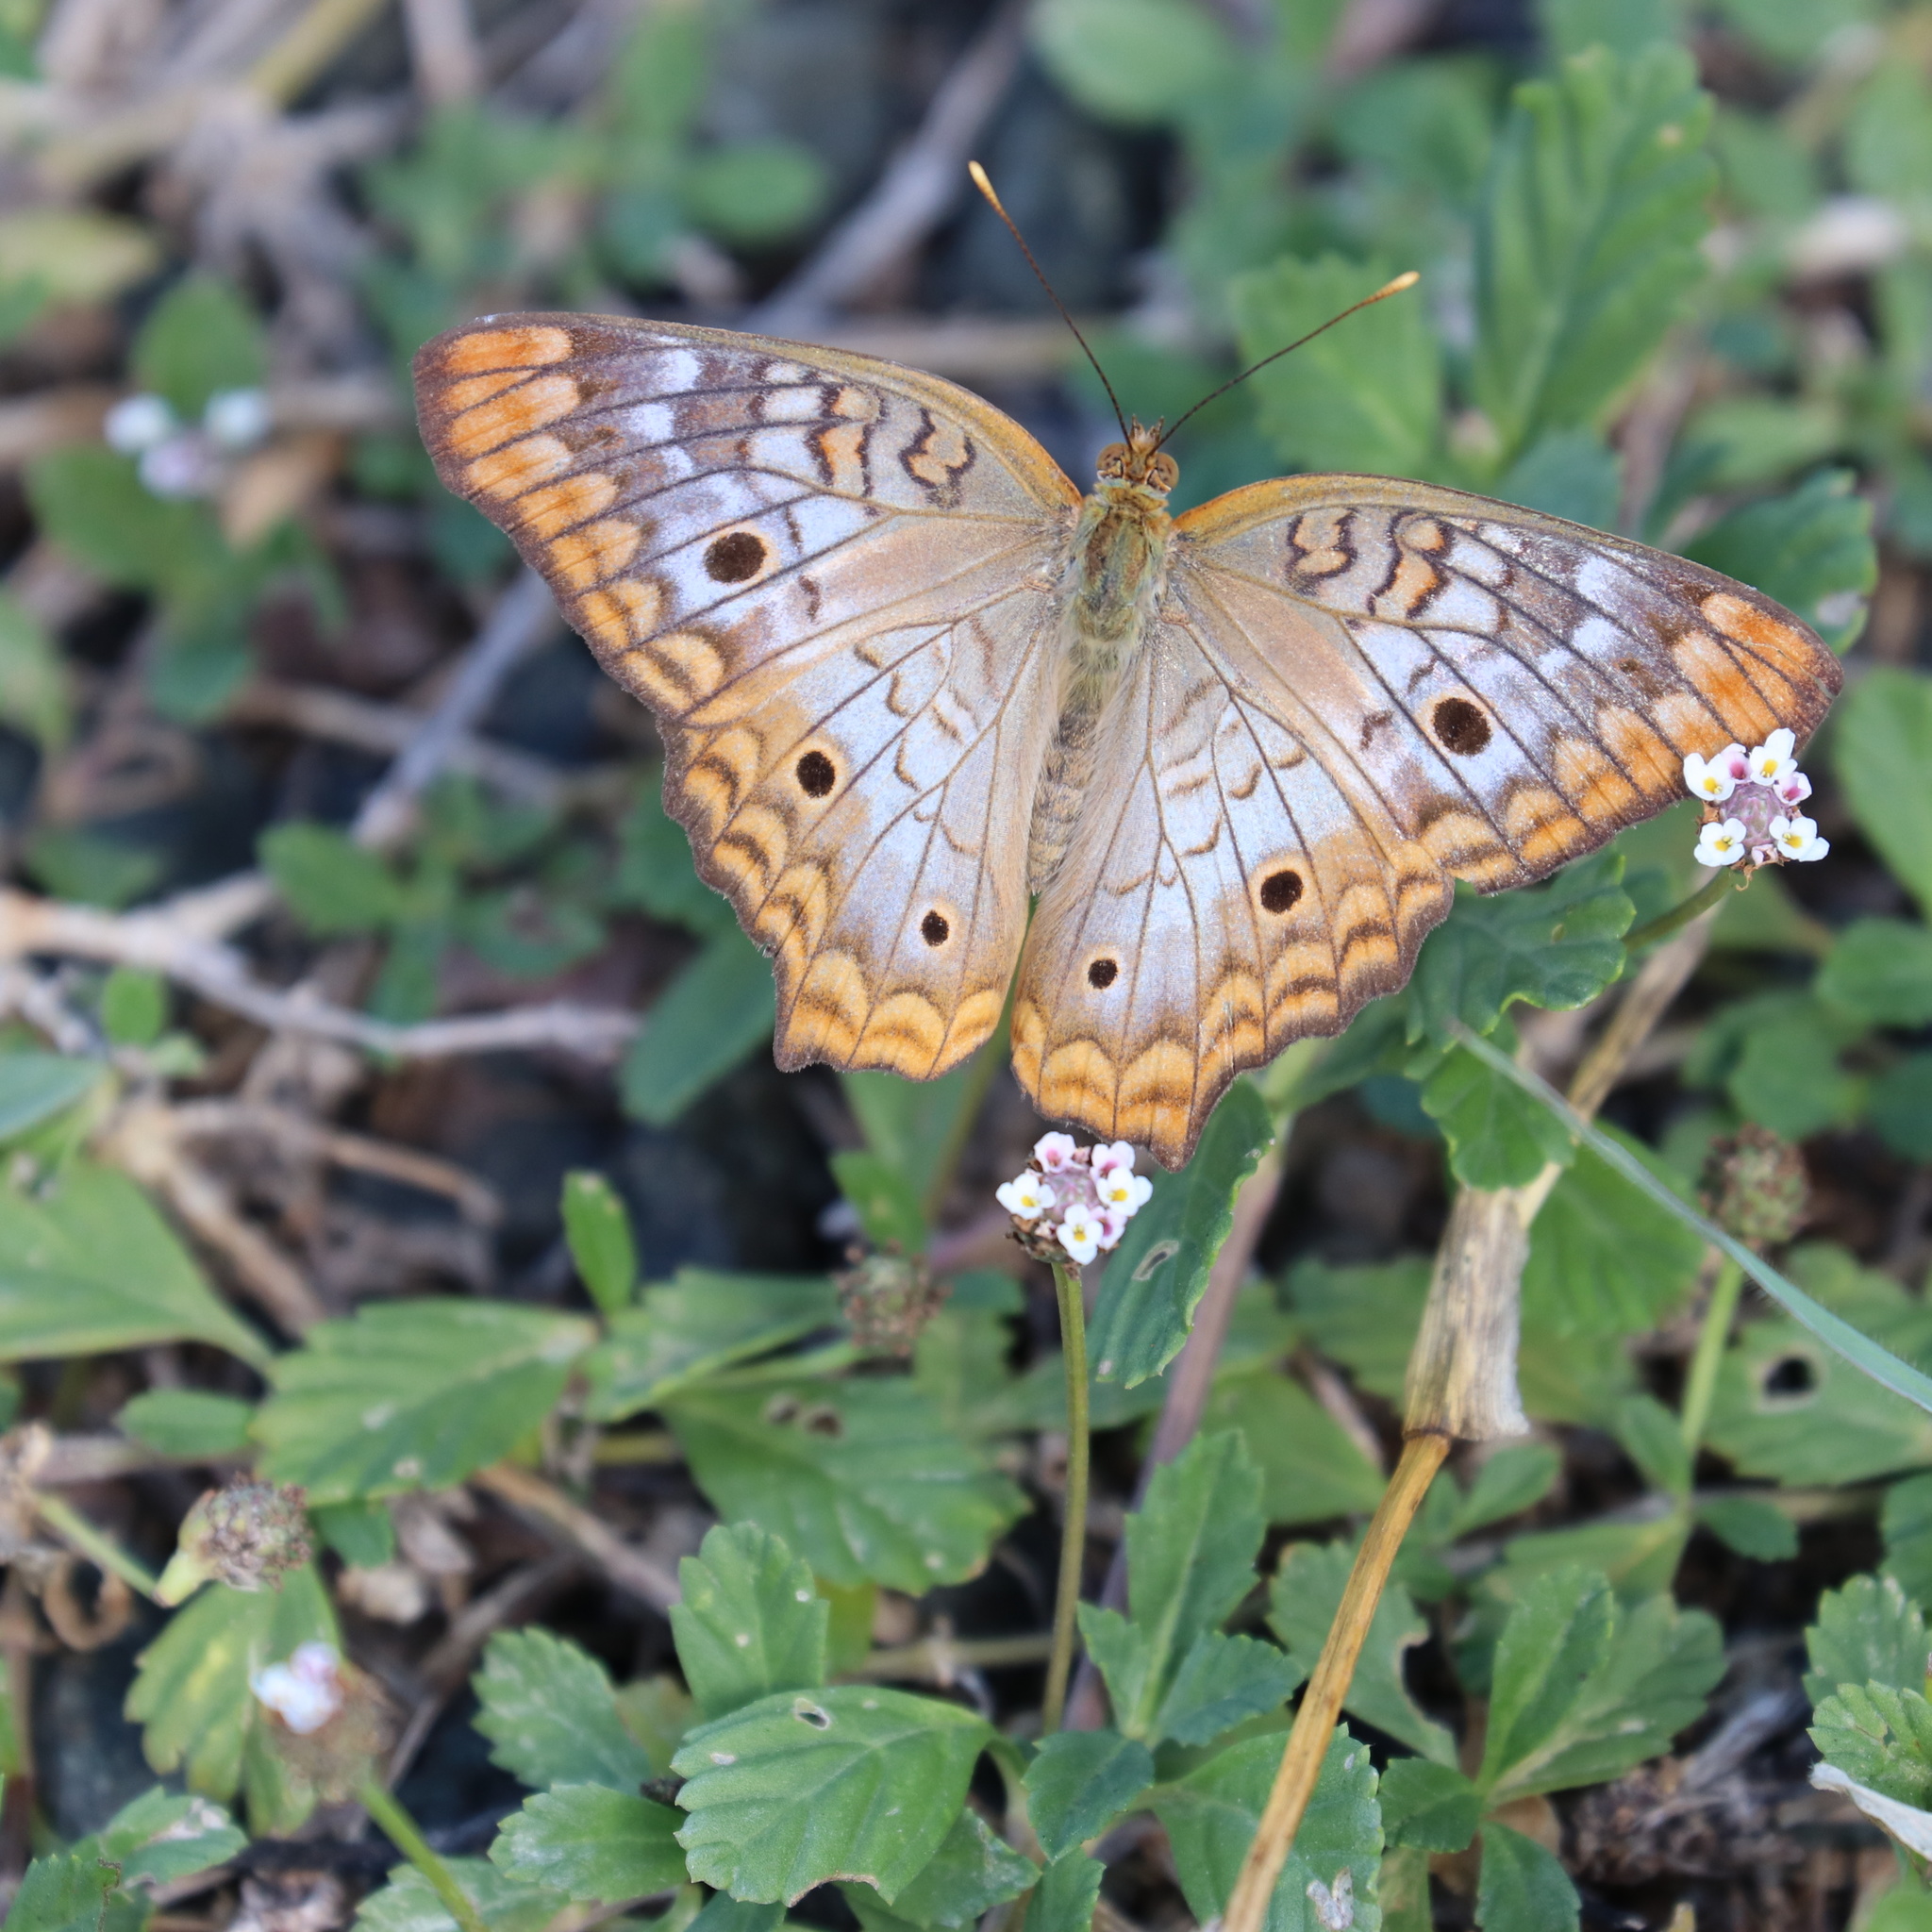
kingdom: Animalia
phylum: Arthropoda
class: Insecta
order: Lepidoptera
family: Nymphalidae
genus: Anartia
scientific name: Anartia jatrophae
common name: White peacock
